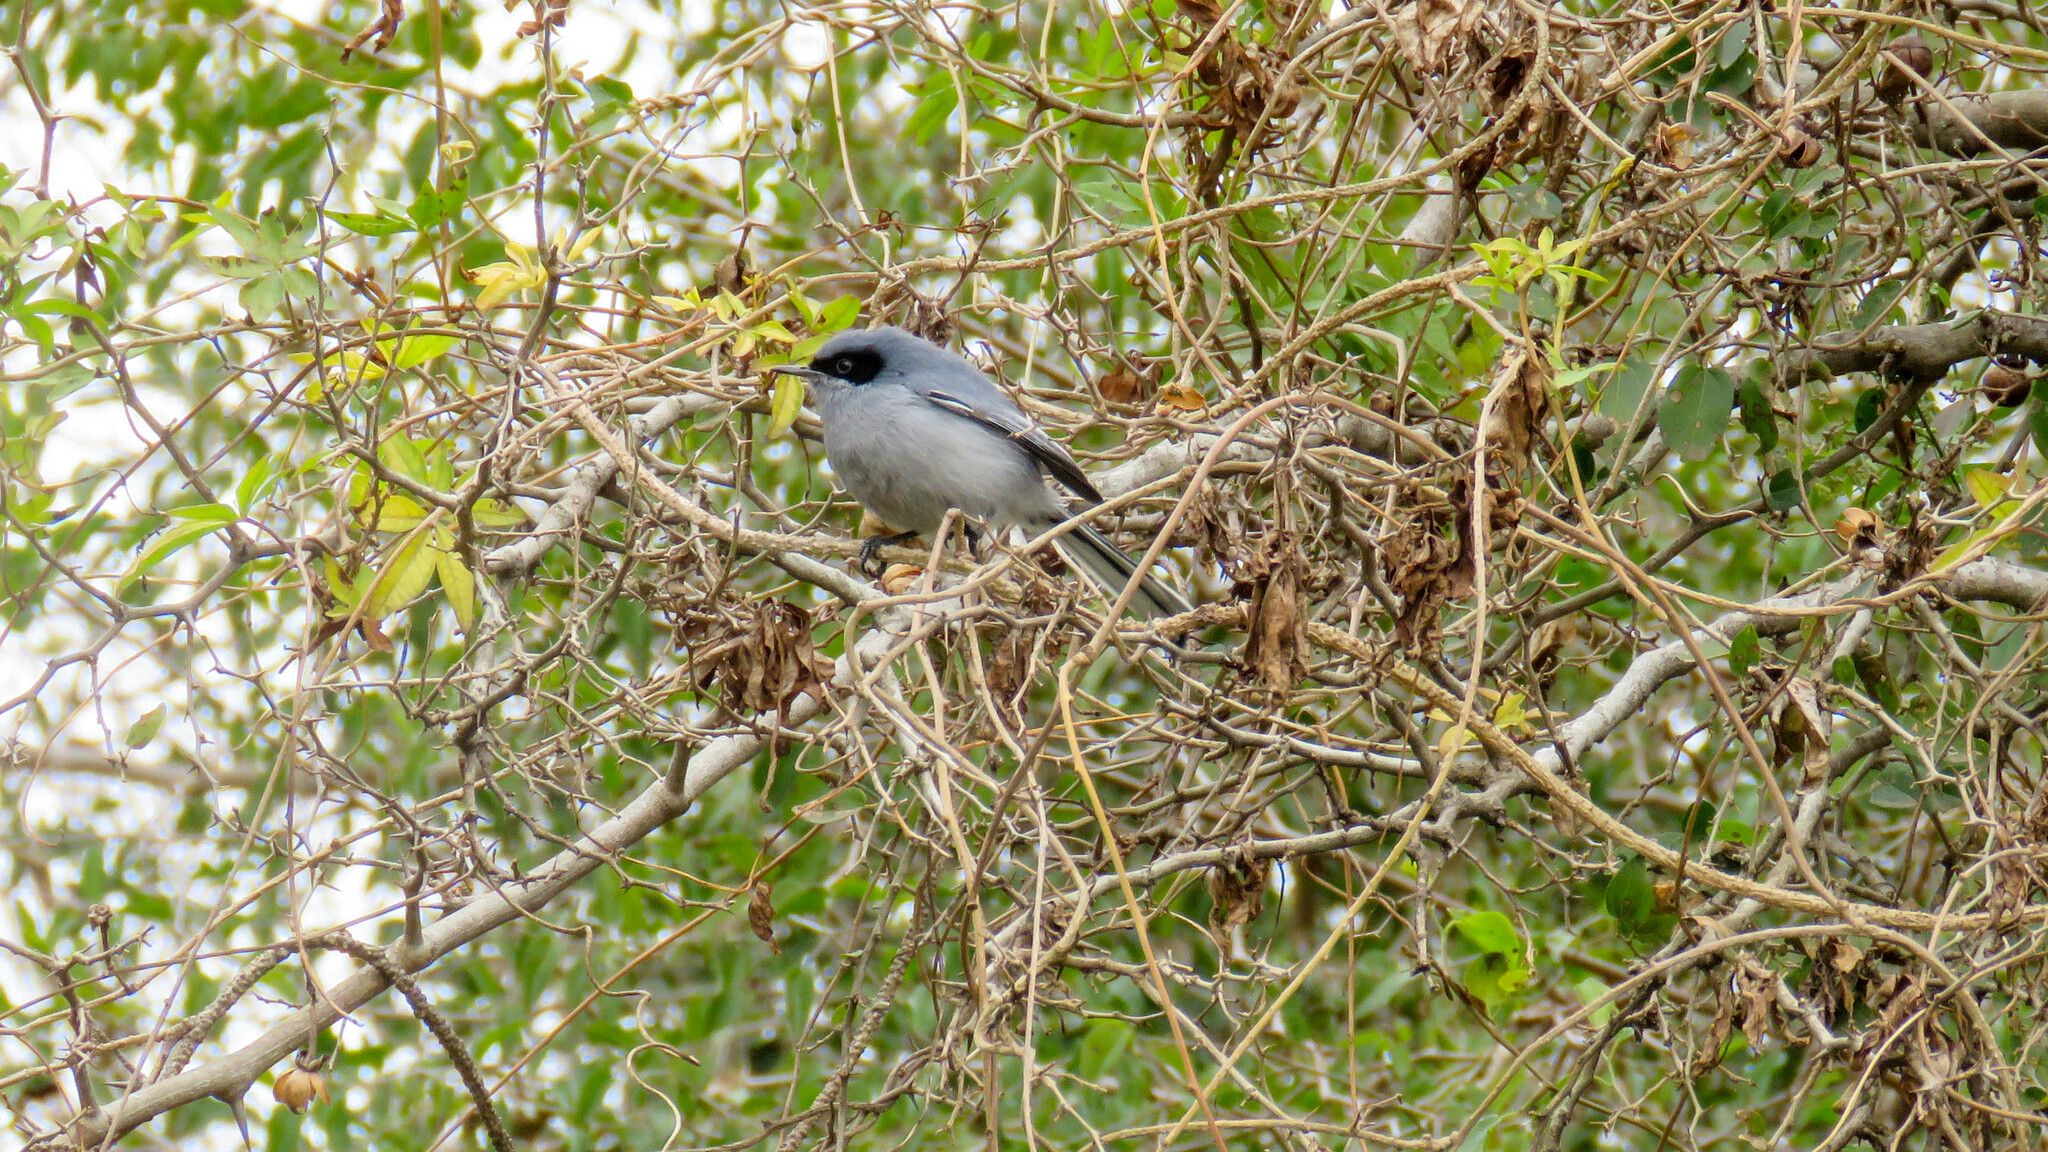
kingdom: Animalia
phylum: Chordata
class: Aves
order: Passeriformes
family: Polioptilidae
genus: Polioptila
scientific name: Polioptila dumicola
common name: Masked gnatcatcher
